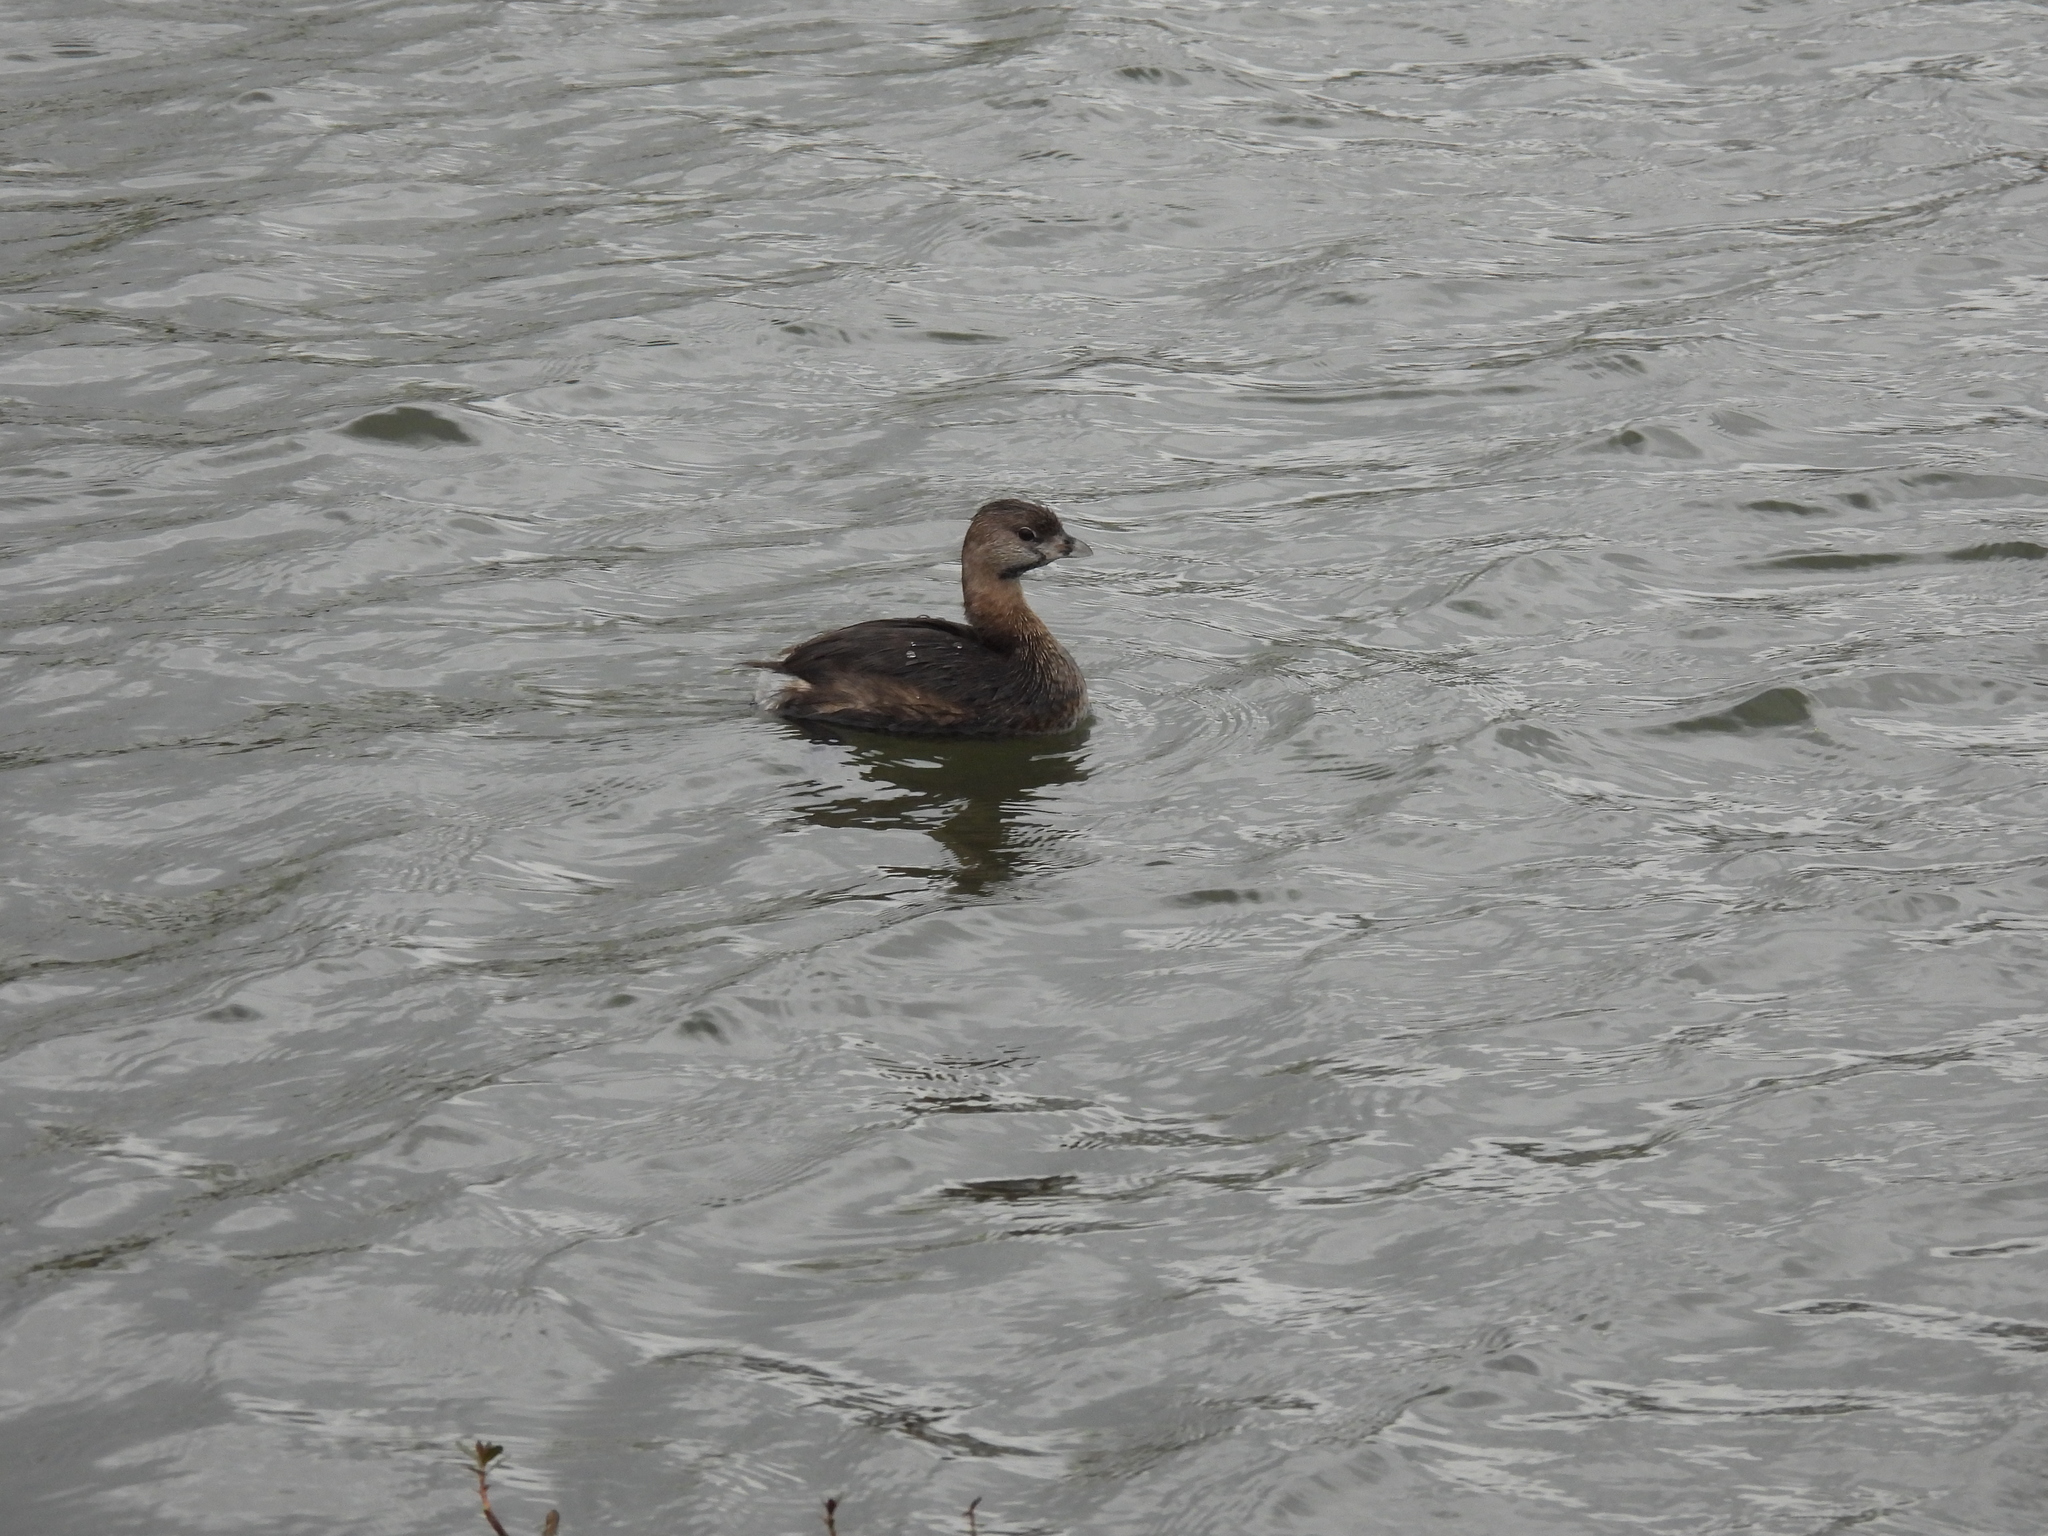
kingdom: Animalia
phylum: Chordata
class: Aves
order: Podicipediformes
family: Podicipedidae
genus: Podilymbus
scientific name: Podilymbus podiceps
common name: Pied-billed grebe
